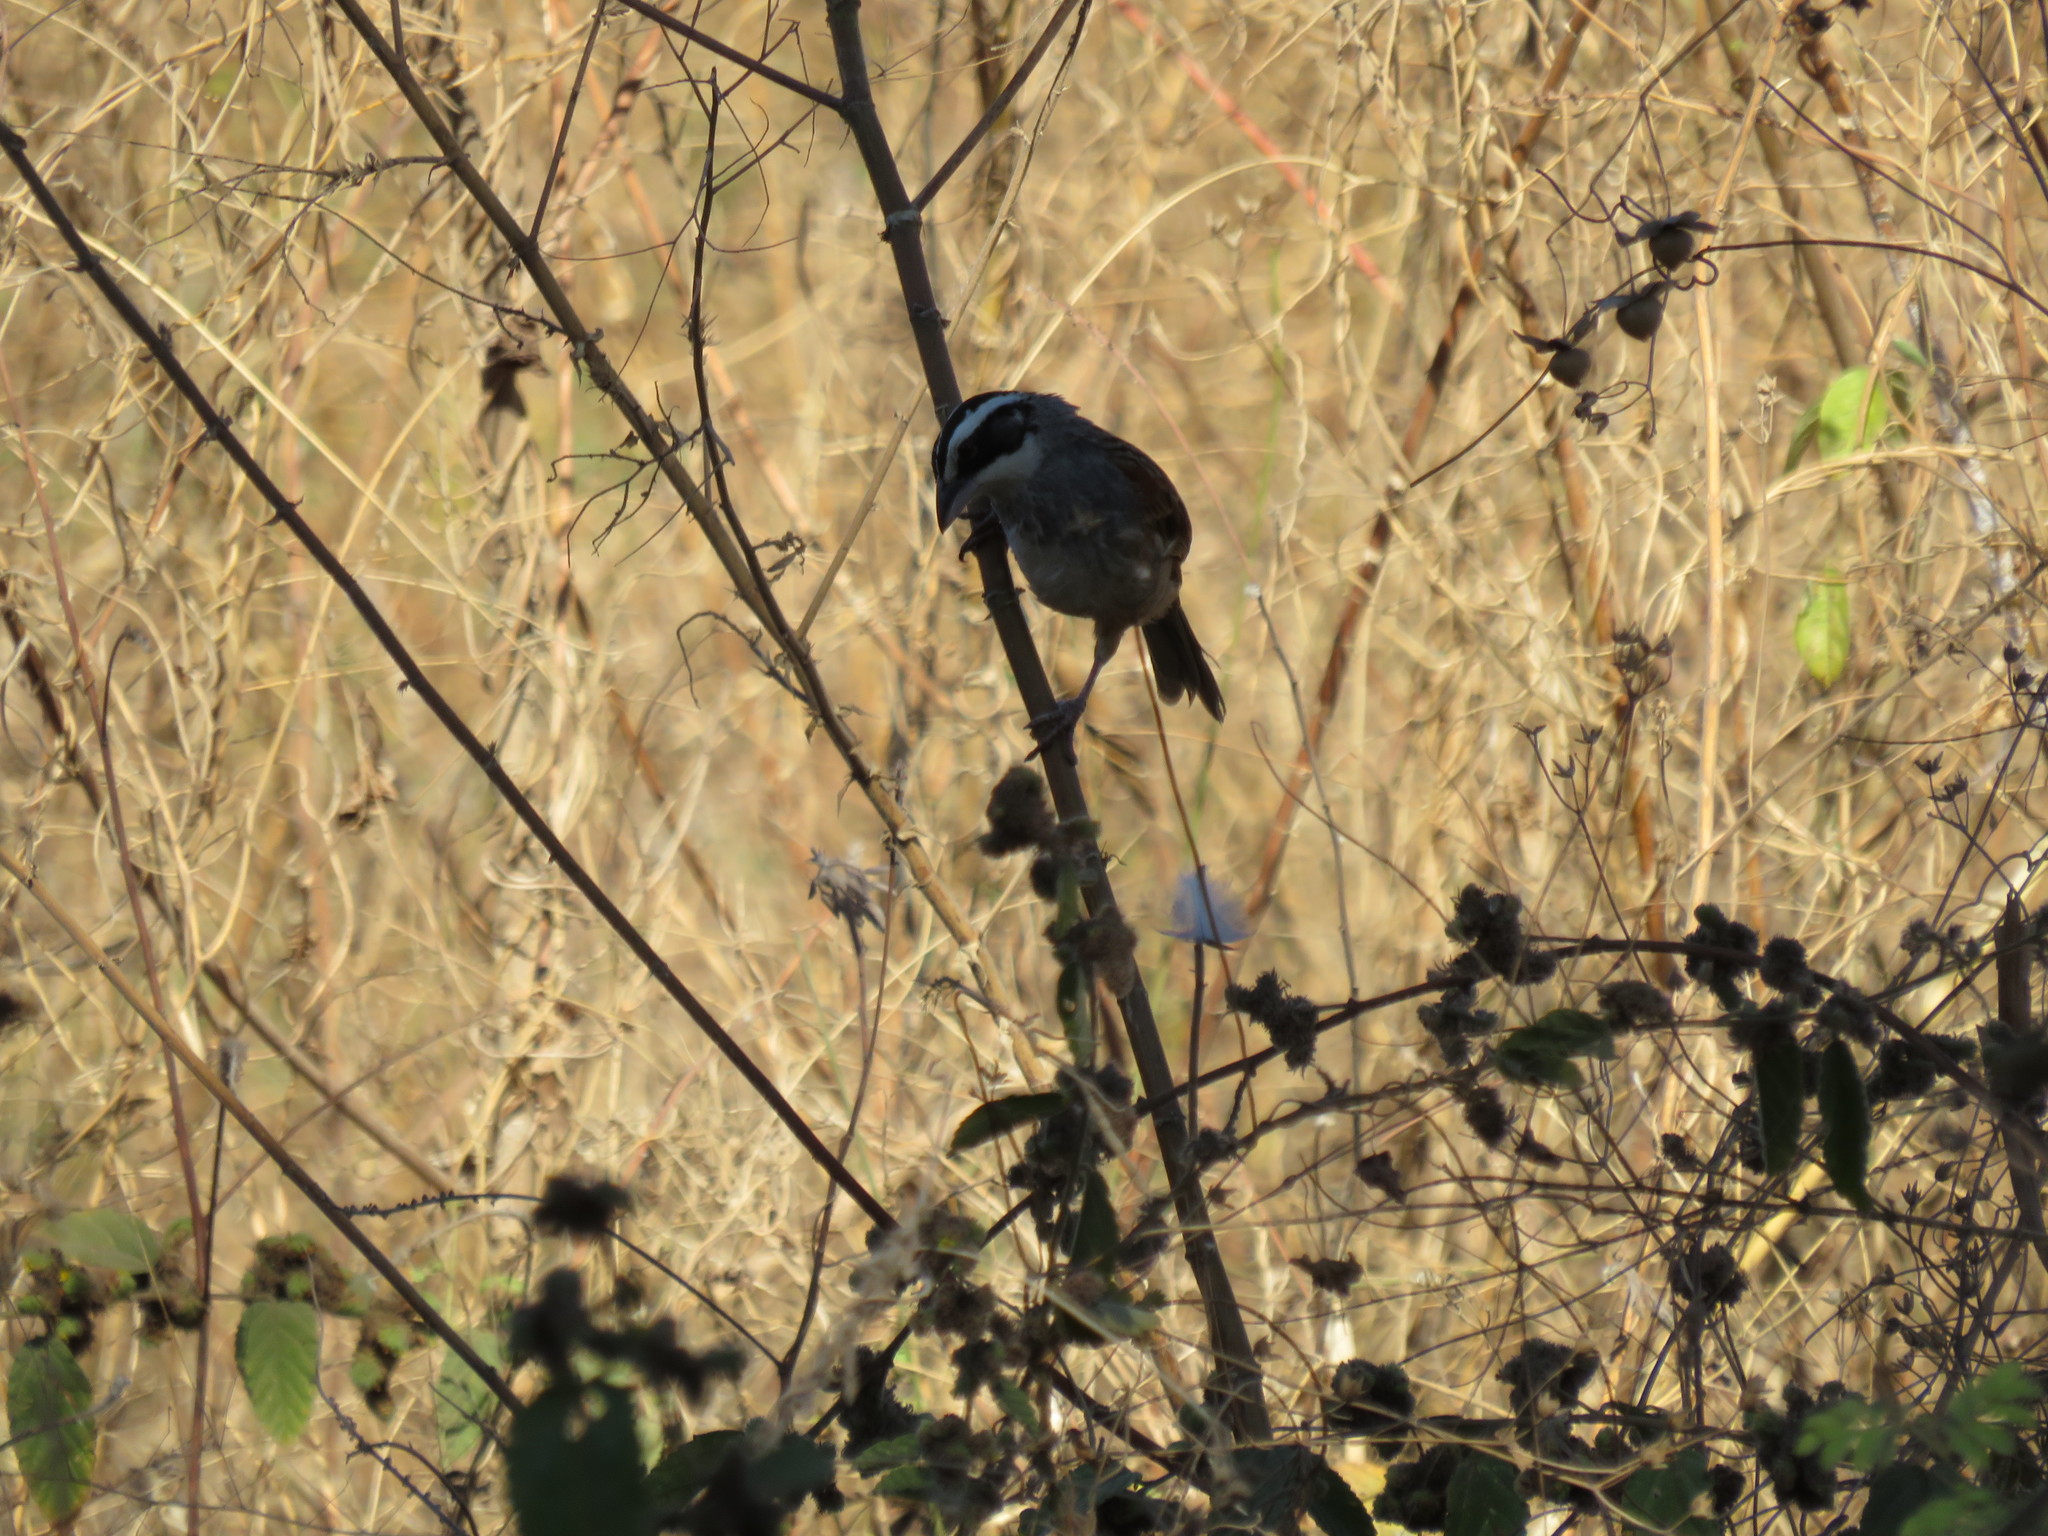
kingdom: Animalia
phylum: Chordata
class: Aves
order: Passeriformes
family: Passerellidae
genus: Peucaea
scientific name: Peucaea ruficauda
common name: Stripe-headed sparrow
